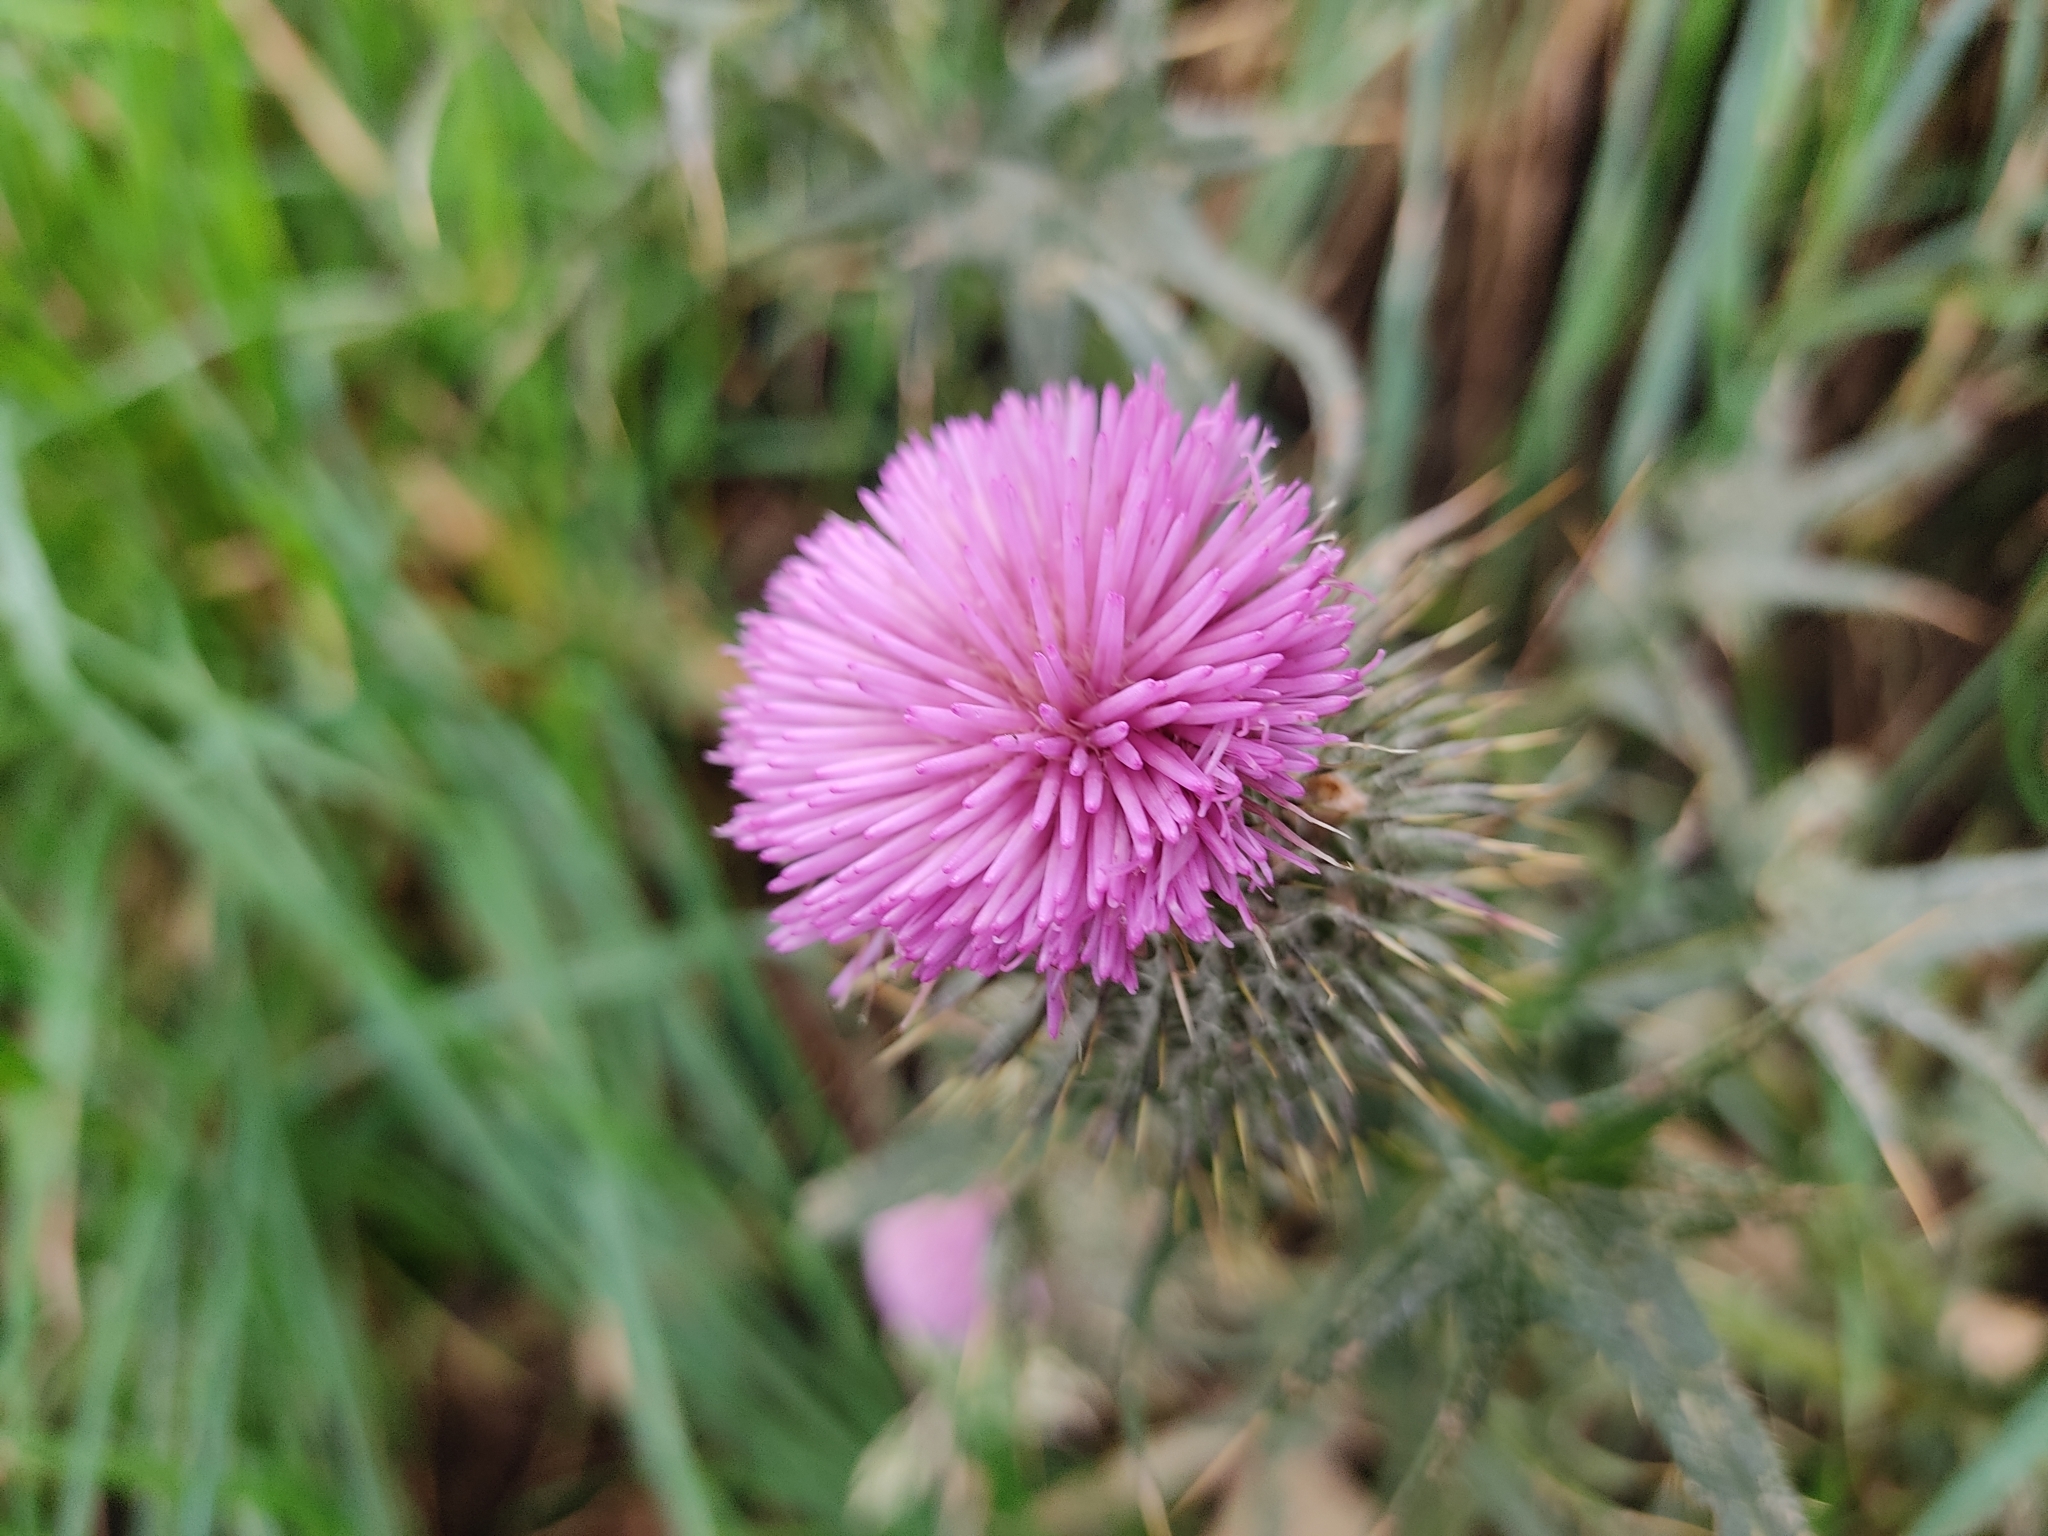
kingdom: Plantae
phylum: Tracheophyta
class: Magnoliopsida
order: Asterales
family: Asteraceae
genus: Cirsium
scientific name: Cirsium vulgare
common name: Bull thistle
